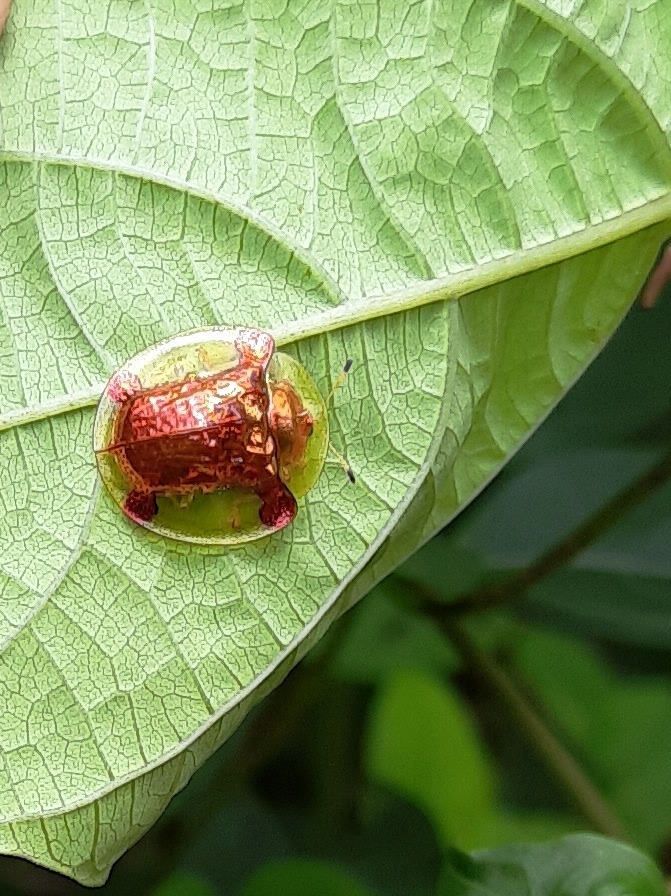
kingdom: Animalia
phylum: Arthropoda
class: Insecta
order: Coleoptera
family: Chrysomelidae
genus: Aspidimorpha
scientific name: Aspidimorpha sanctaecrucis
